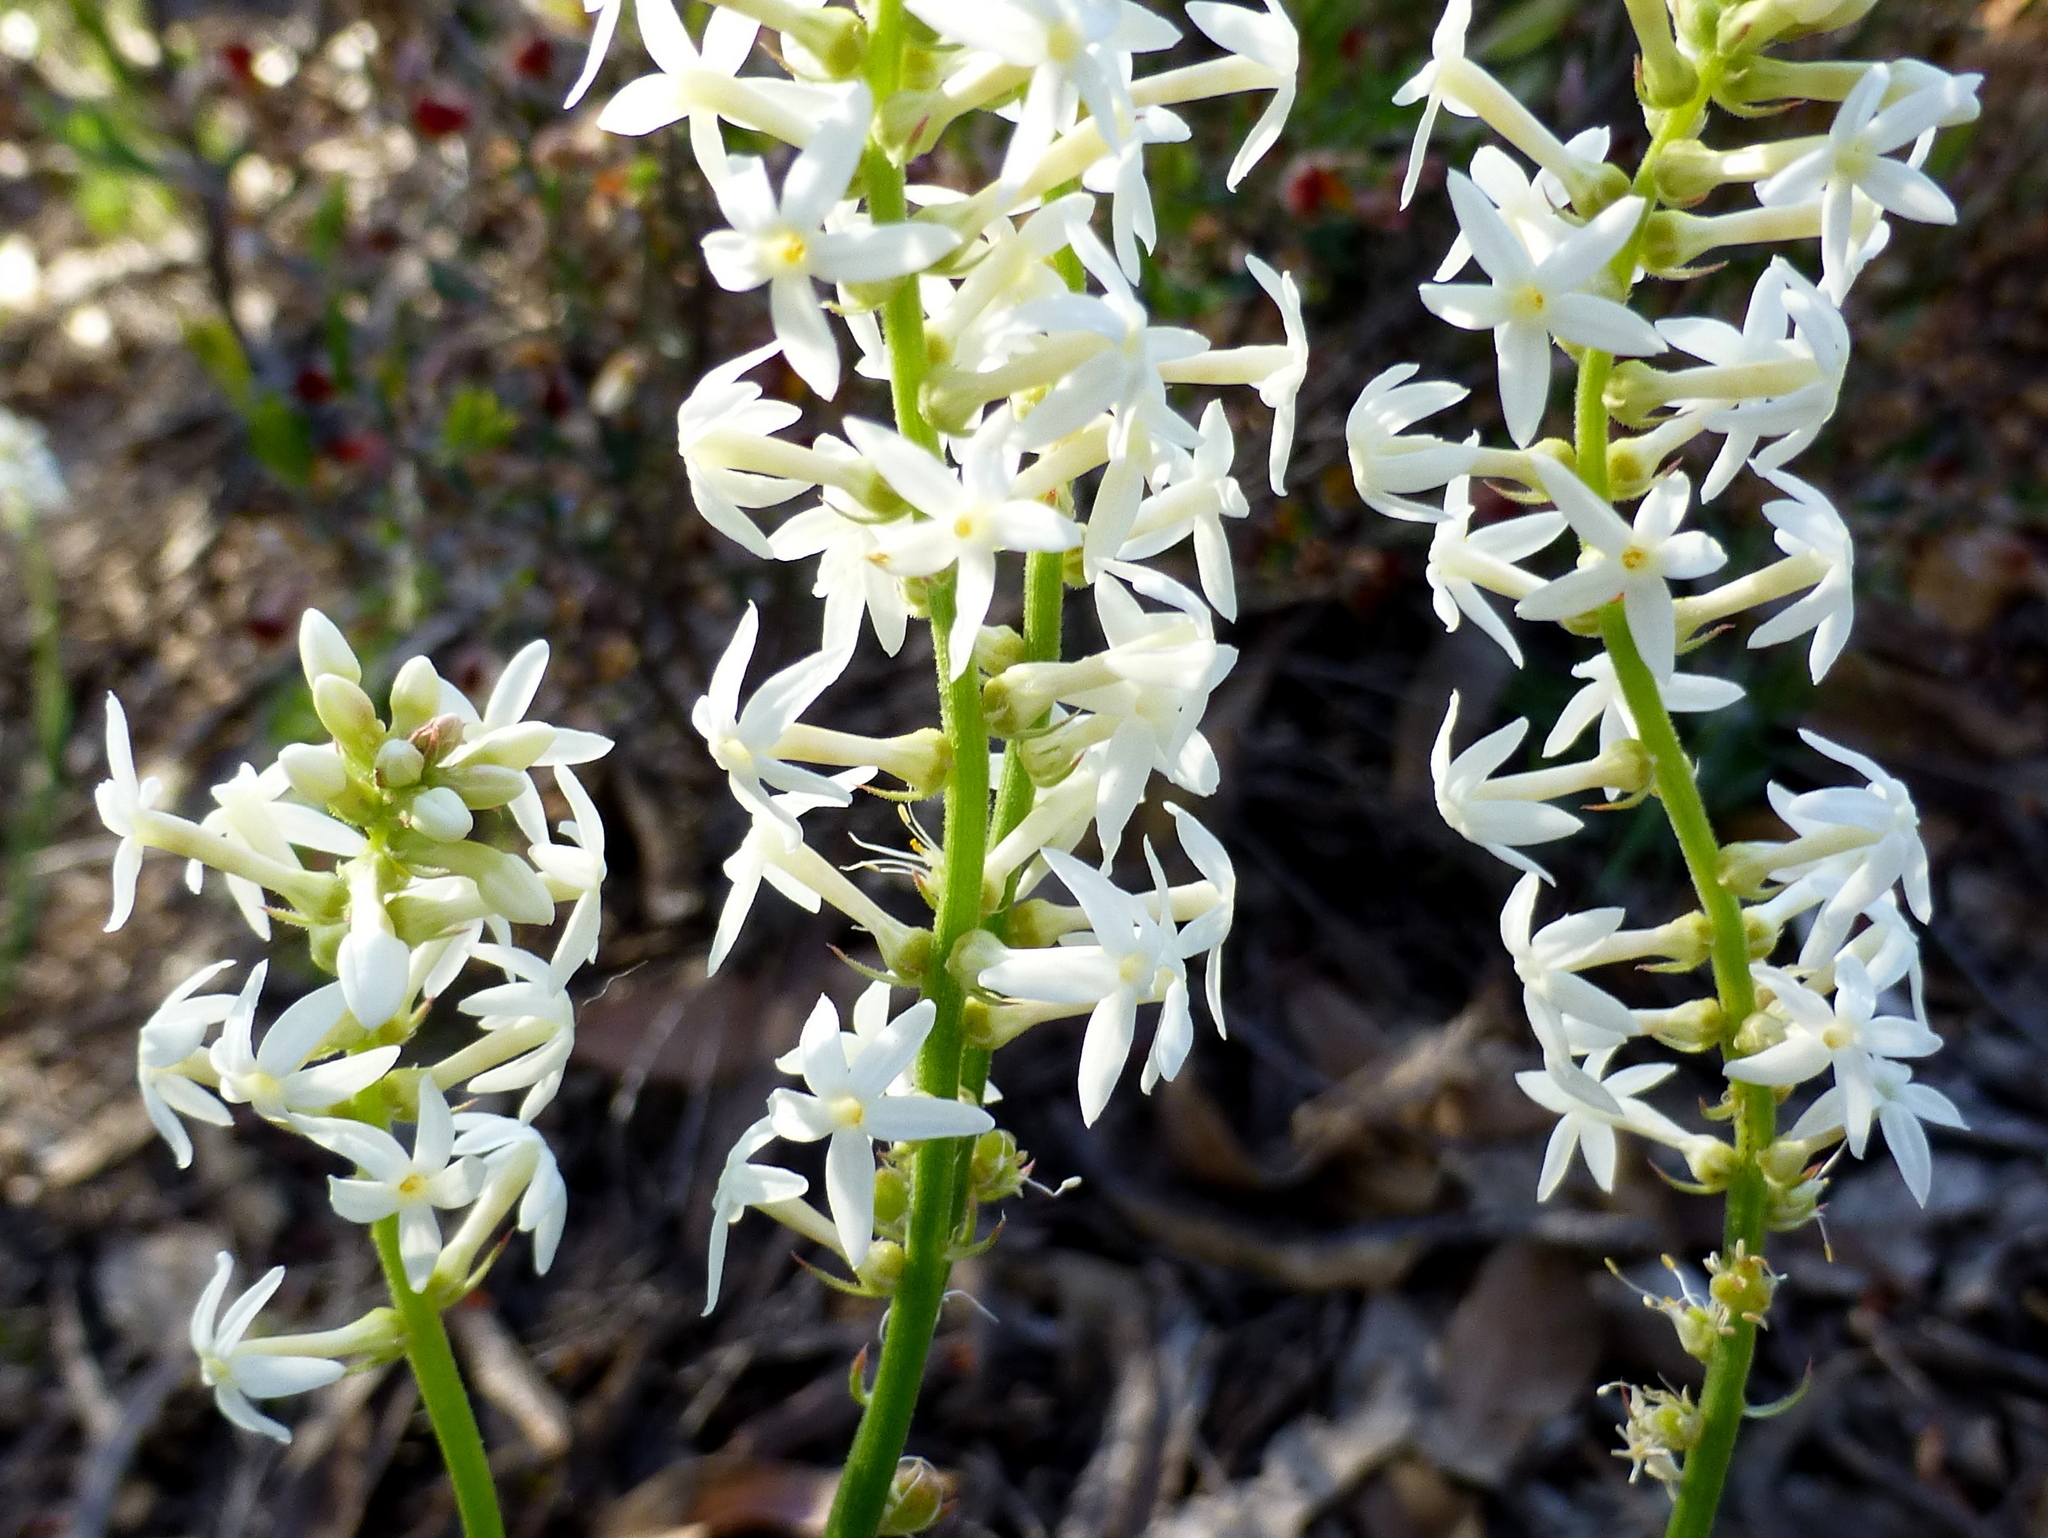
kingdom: Plantae
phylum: Tracheophyta
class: Magnoliopsida
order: Celastrales
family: Celastraceae
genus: Stackhousia
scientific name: Stackhousia monogyna
